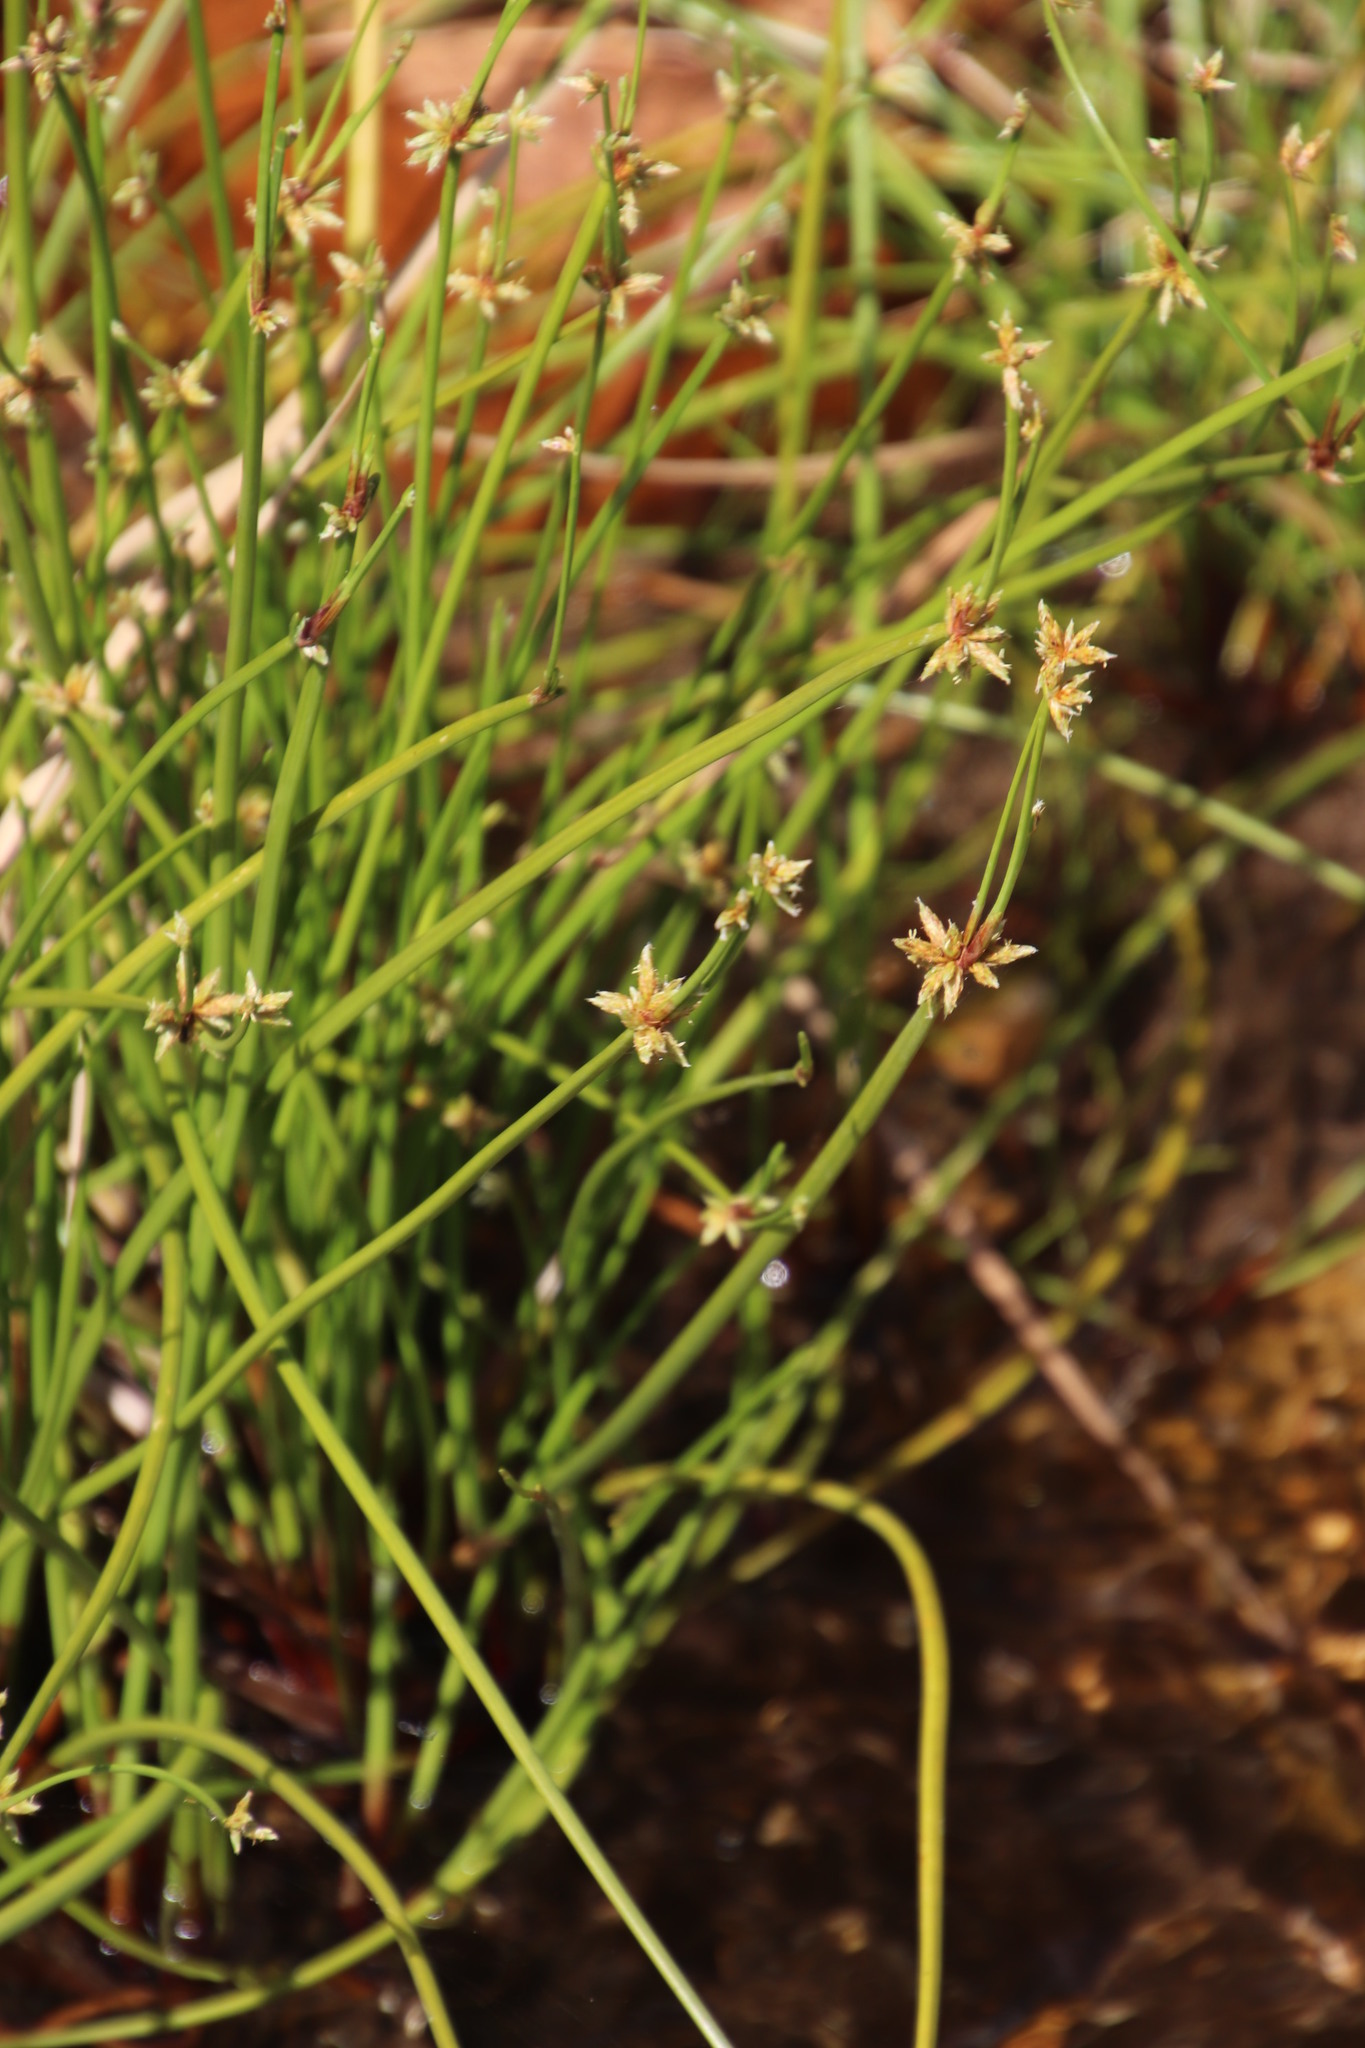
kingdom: Plantae
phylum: Tracheophyta
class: Liliopsida
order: Poales
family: Cyperaceae
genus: Isolepis
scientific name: Isolepis prolifera
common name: Proliferating bulrush
